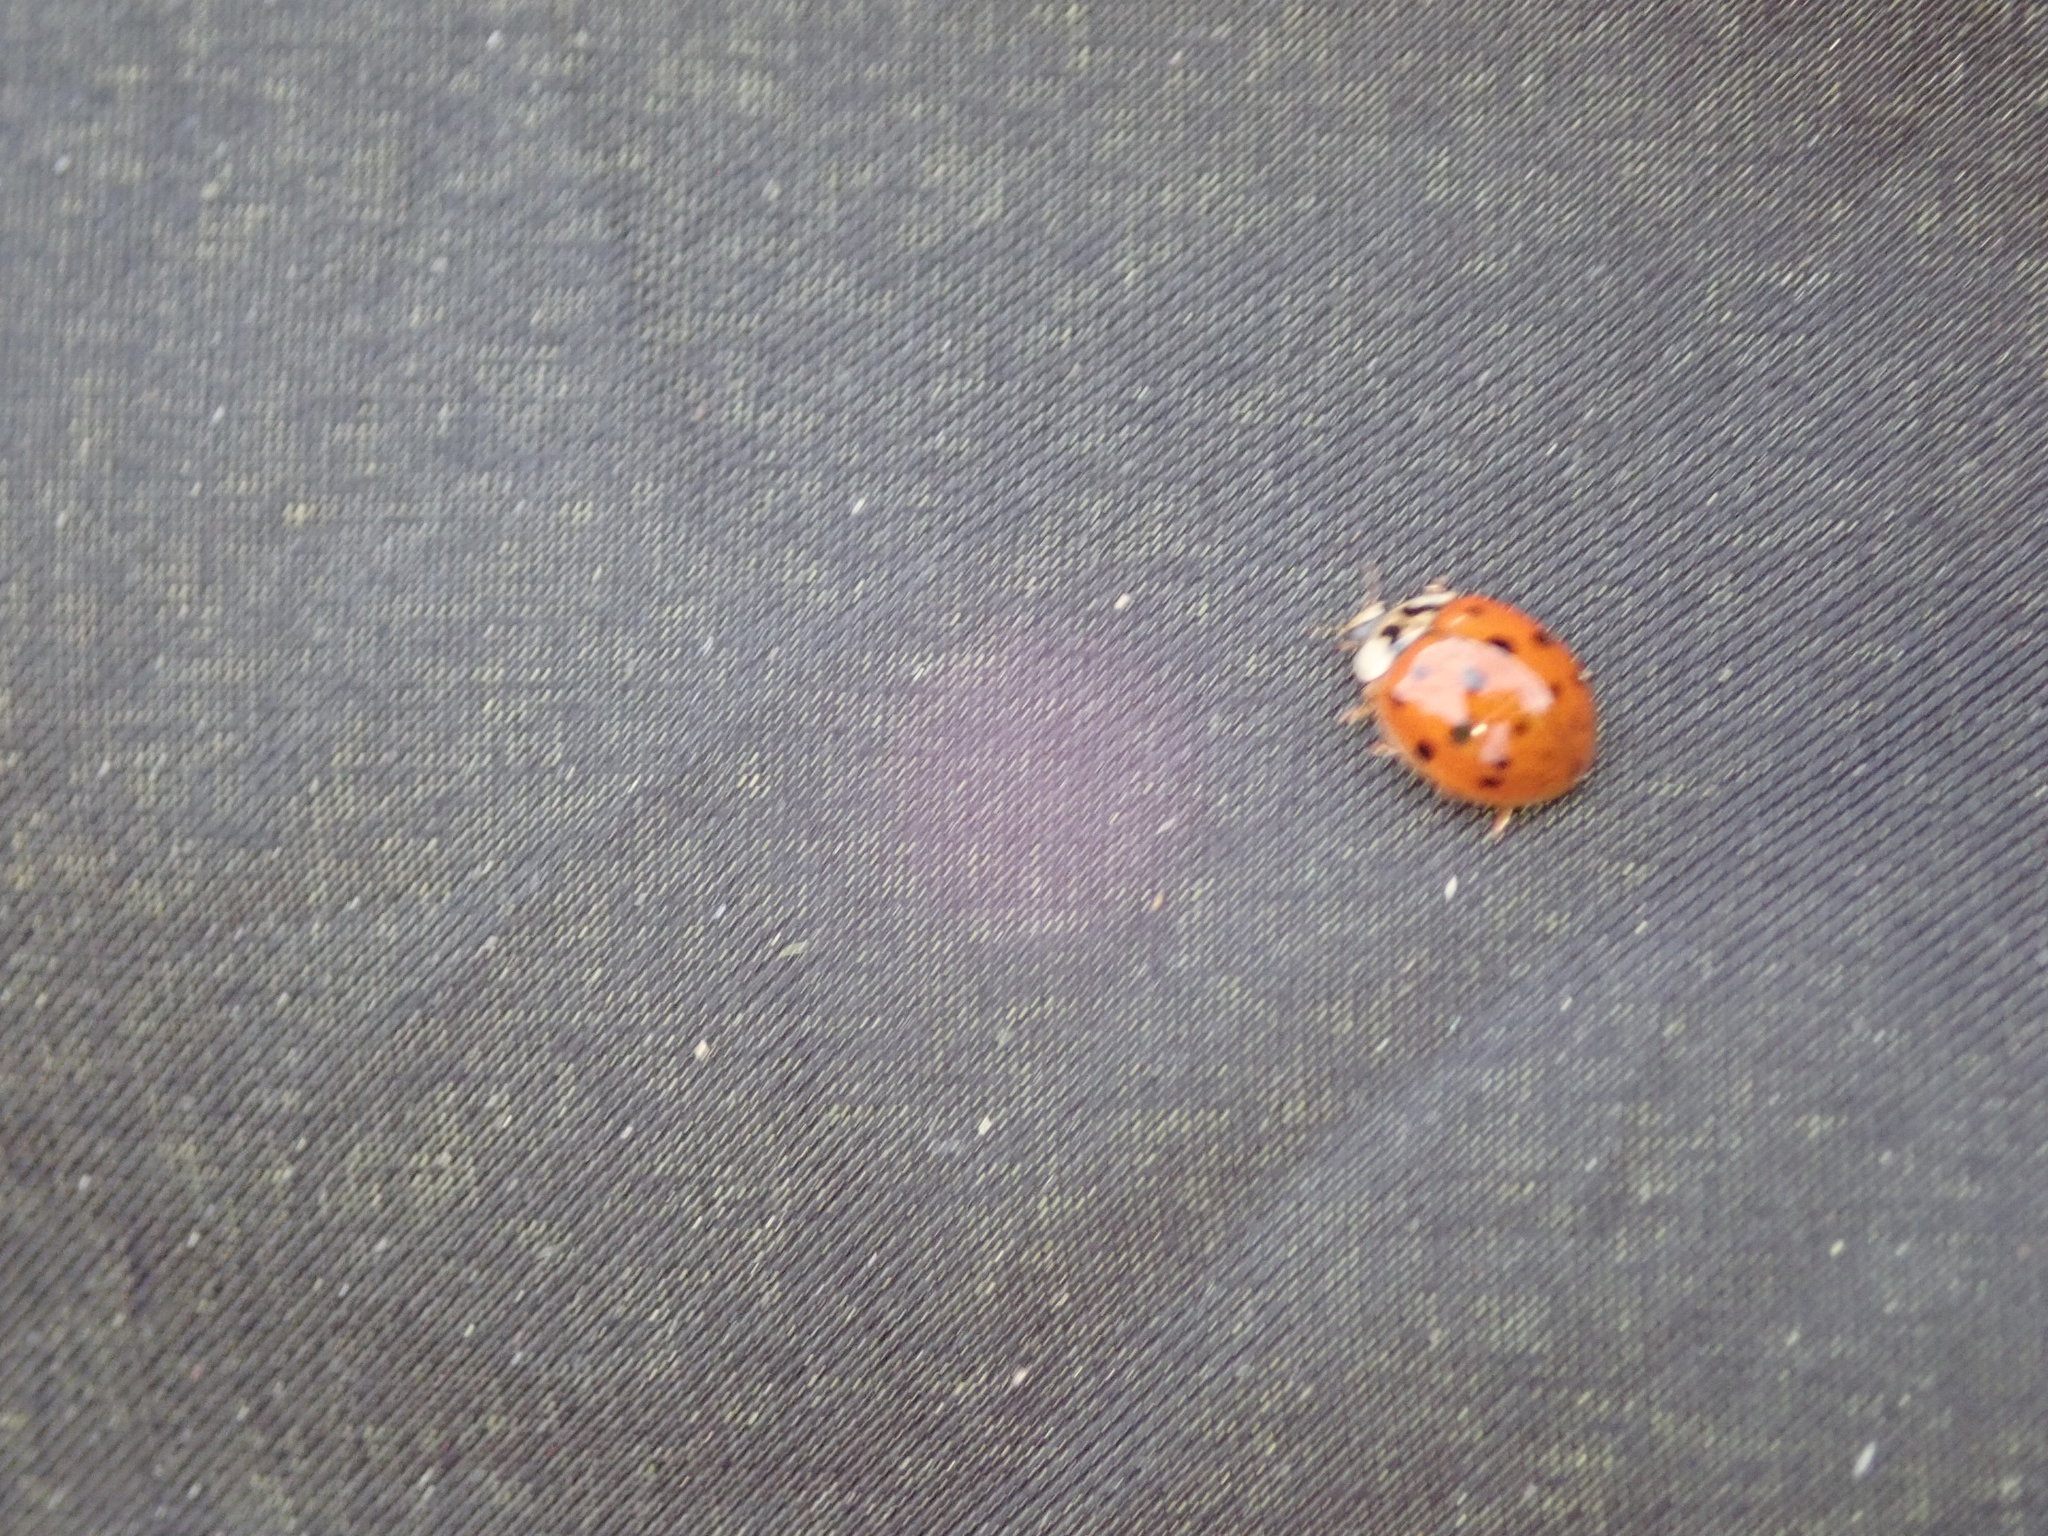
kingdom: Animalia
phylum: Arthropoda
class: Insecta
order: Coleoptera
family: Coccinellidae
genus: Harmonia
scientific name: Harmonia axyridis
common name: Harlequin ladybird
